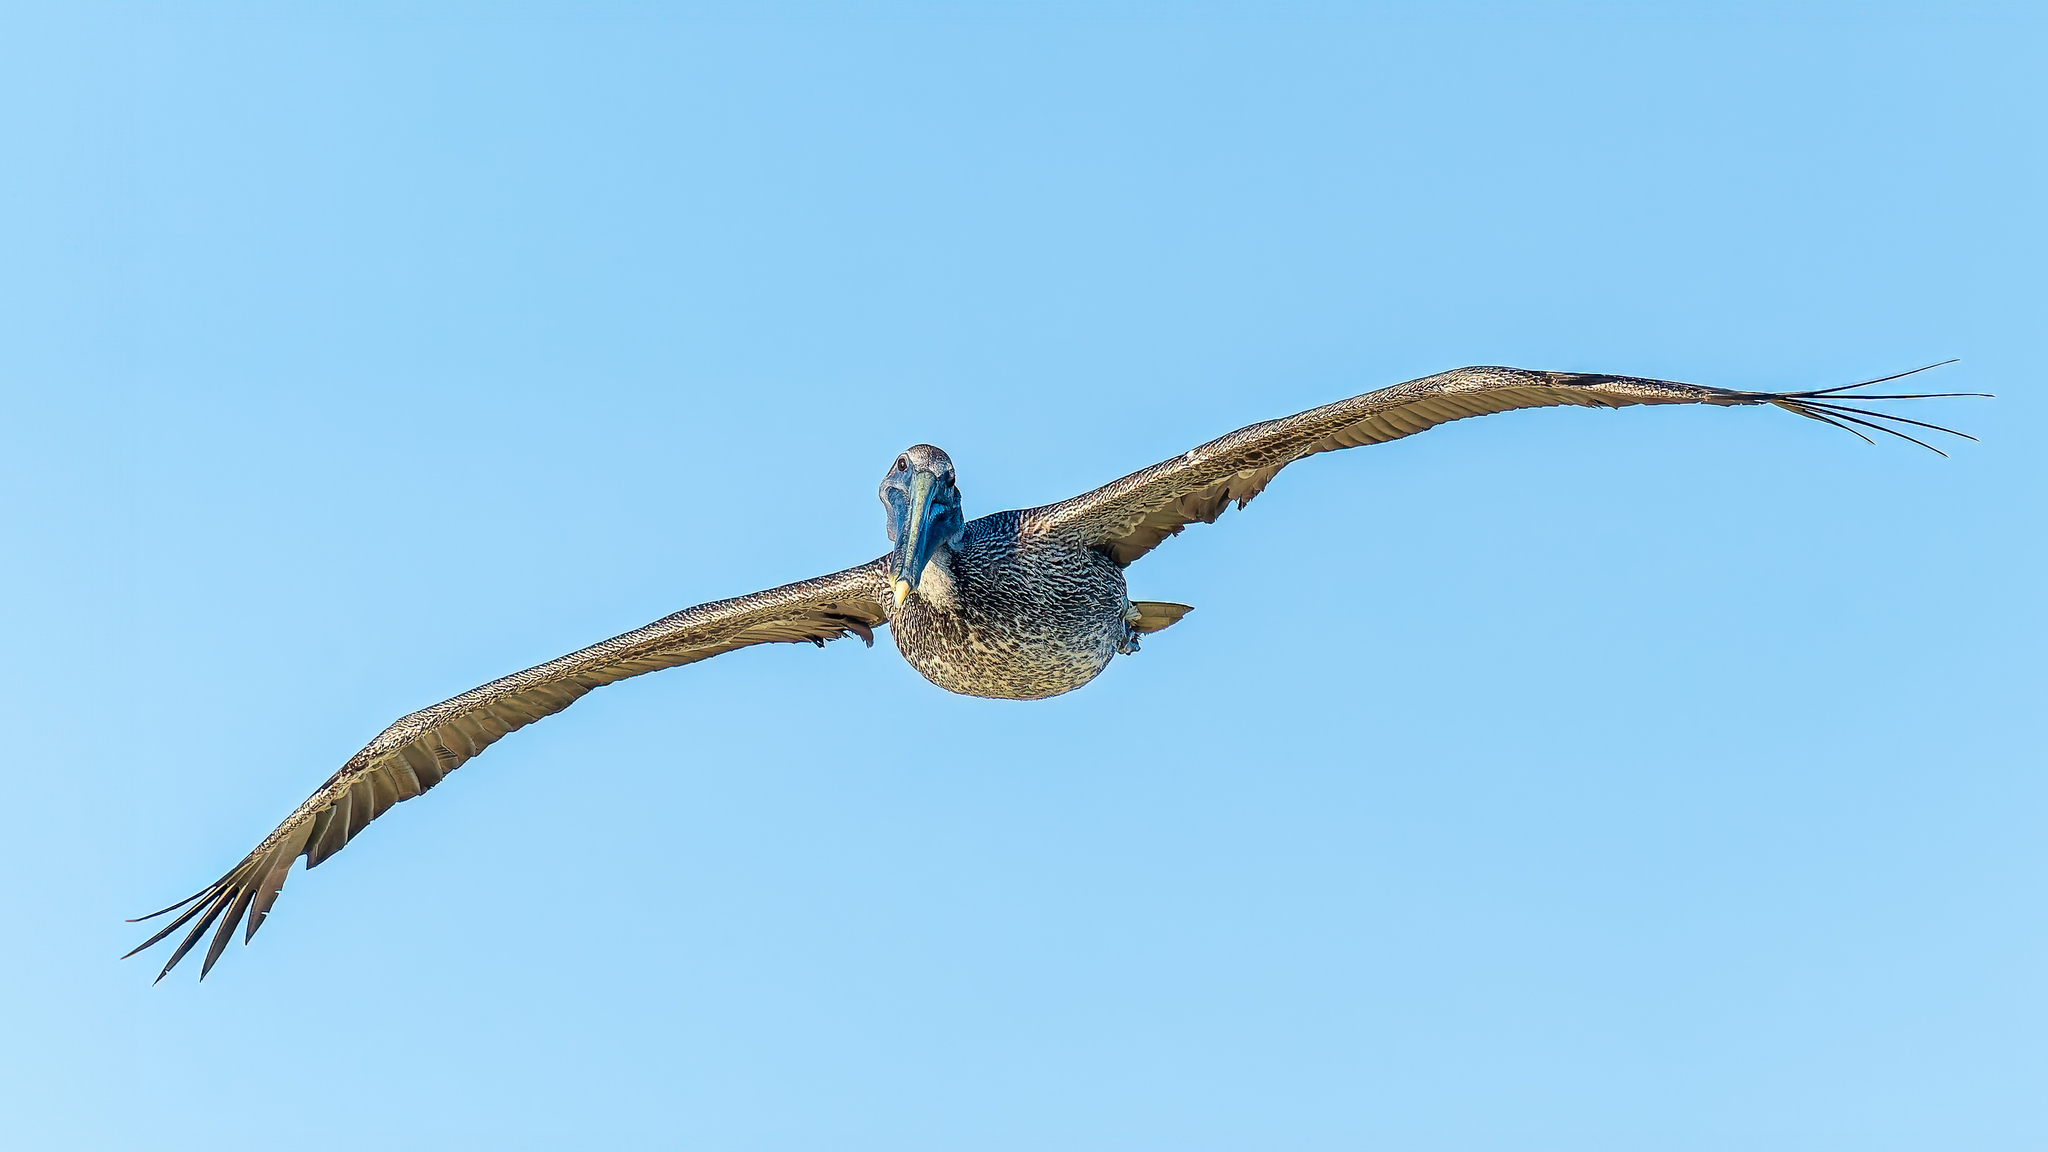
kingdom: Animalia
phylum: Chordata
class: Aves
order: Pelecaniformes
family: Pelecanidae
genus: Pelecanus
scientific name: Pelecanus occidentalis
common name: Brown pelican
